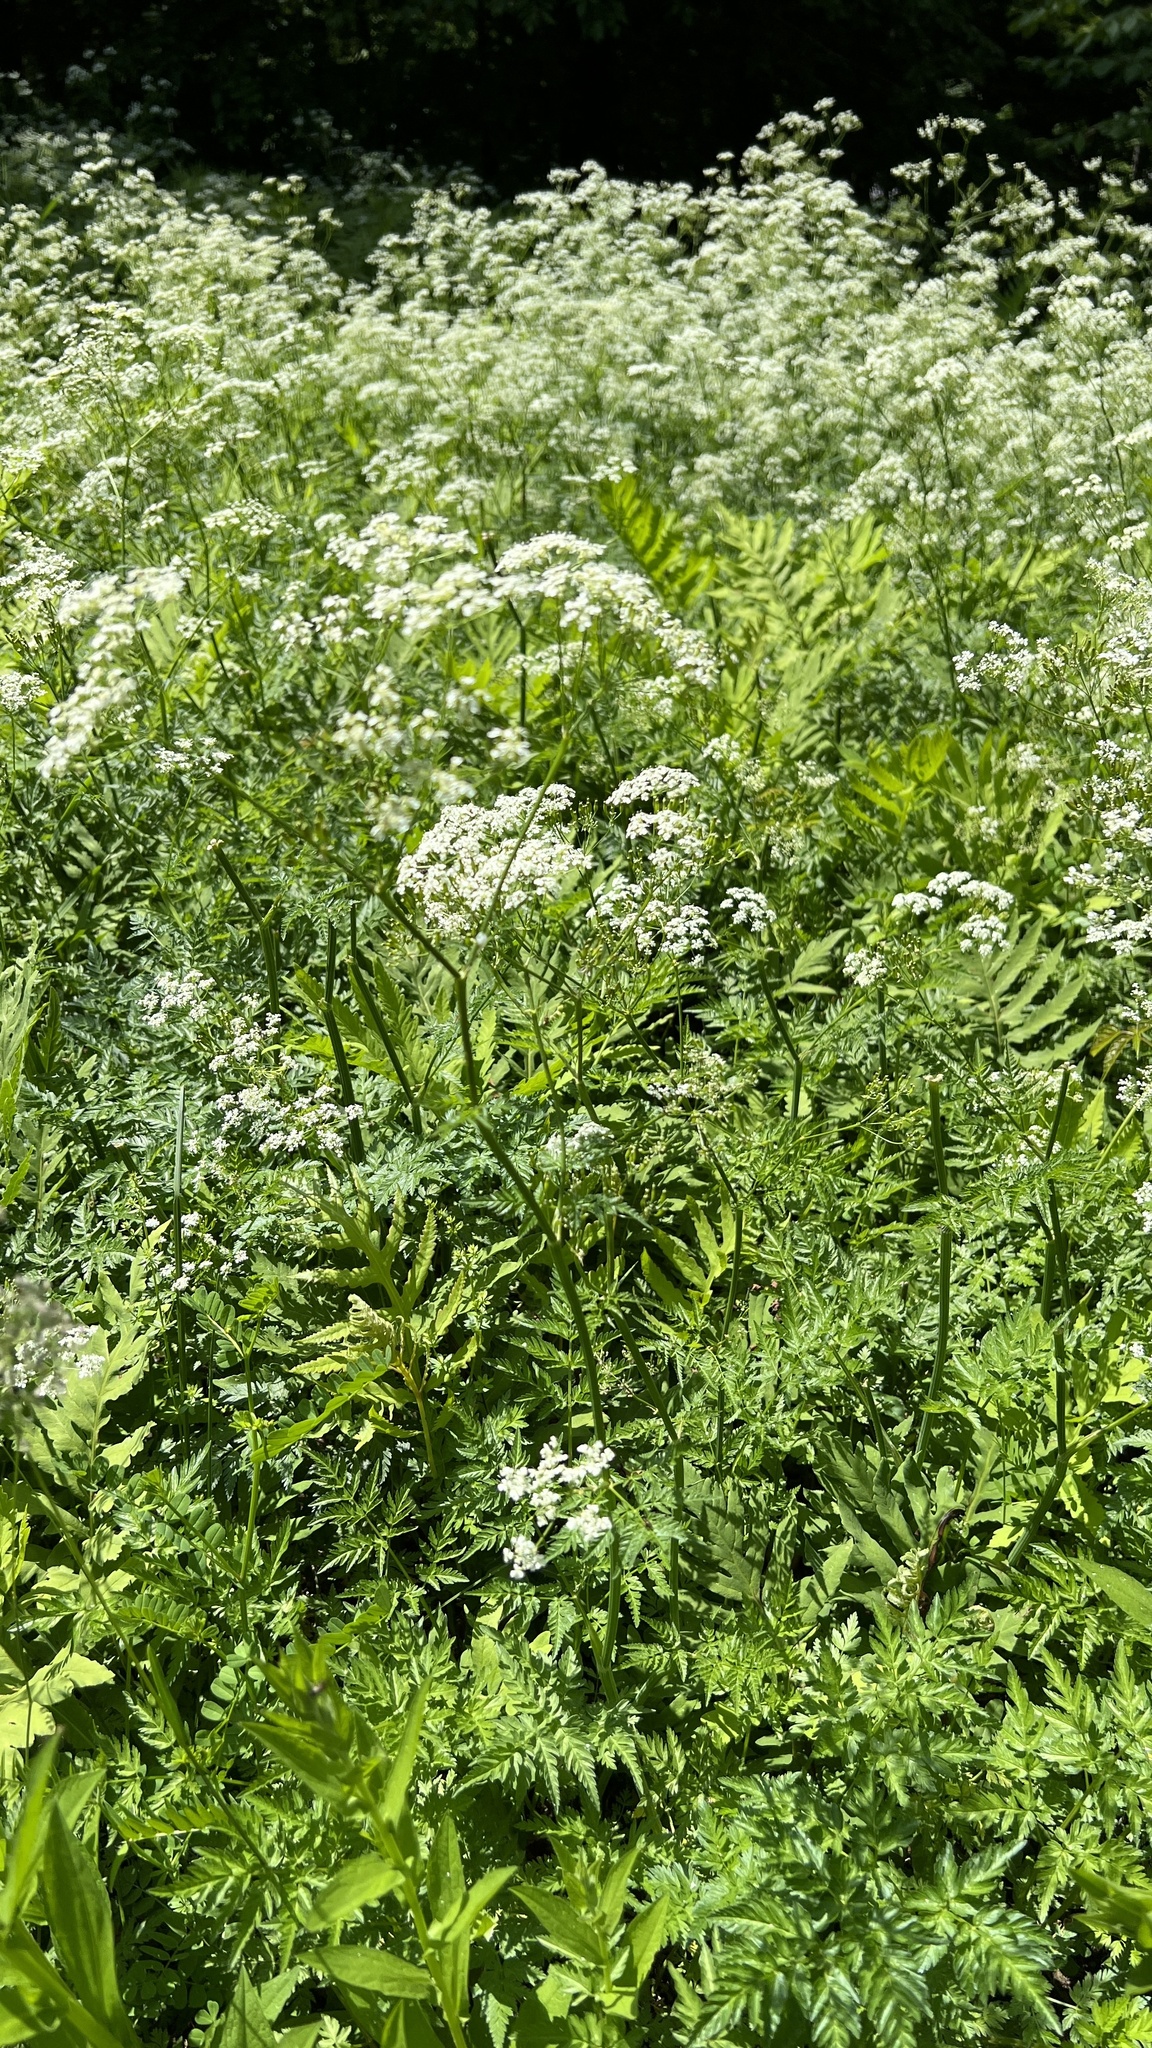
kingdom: Plantae
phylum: Tracheophyta
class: Magnoliopsida
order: Apiales
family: Apiaceae
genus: Anthriscus
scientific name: Anthriscus sylvestris
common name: Cow parsley
